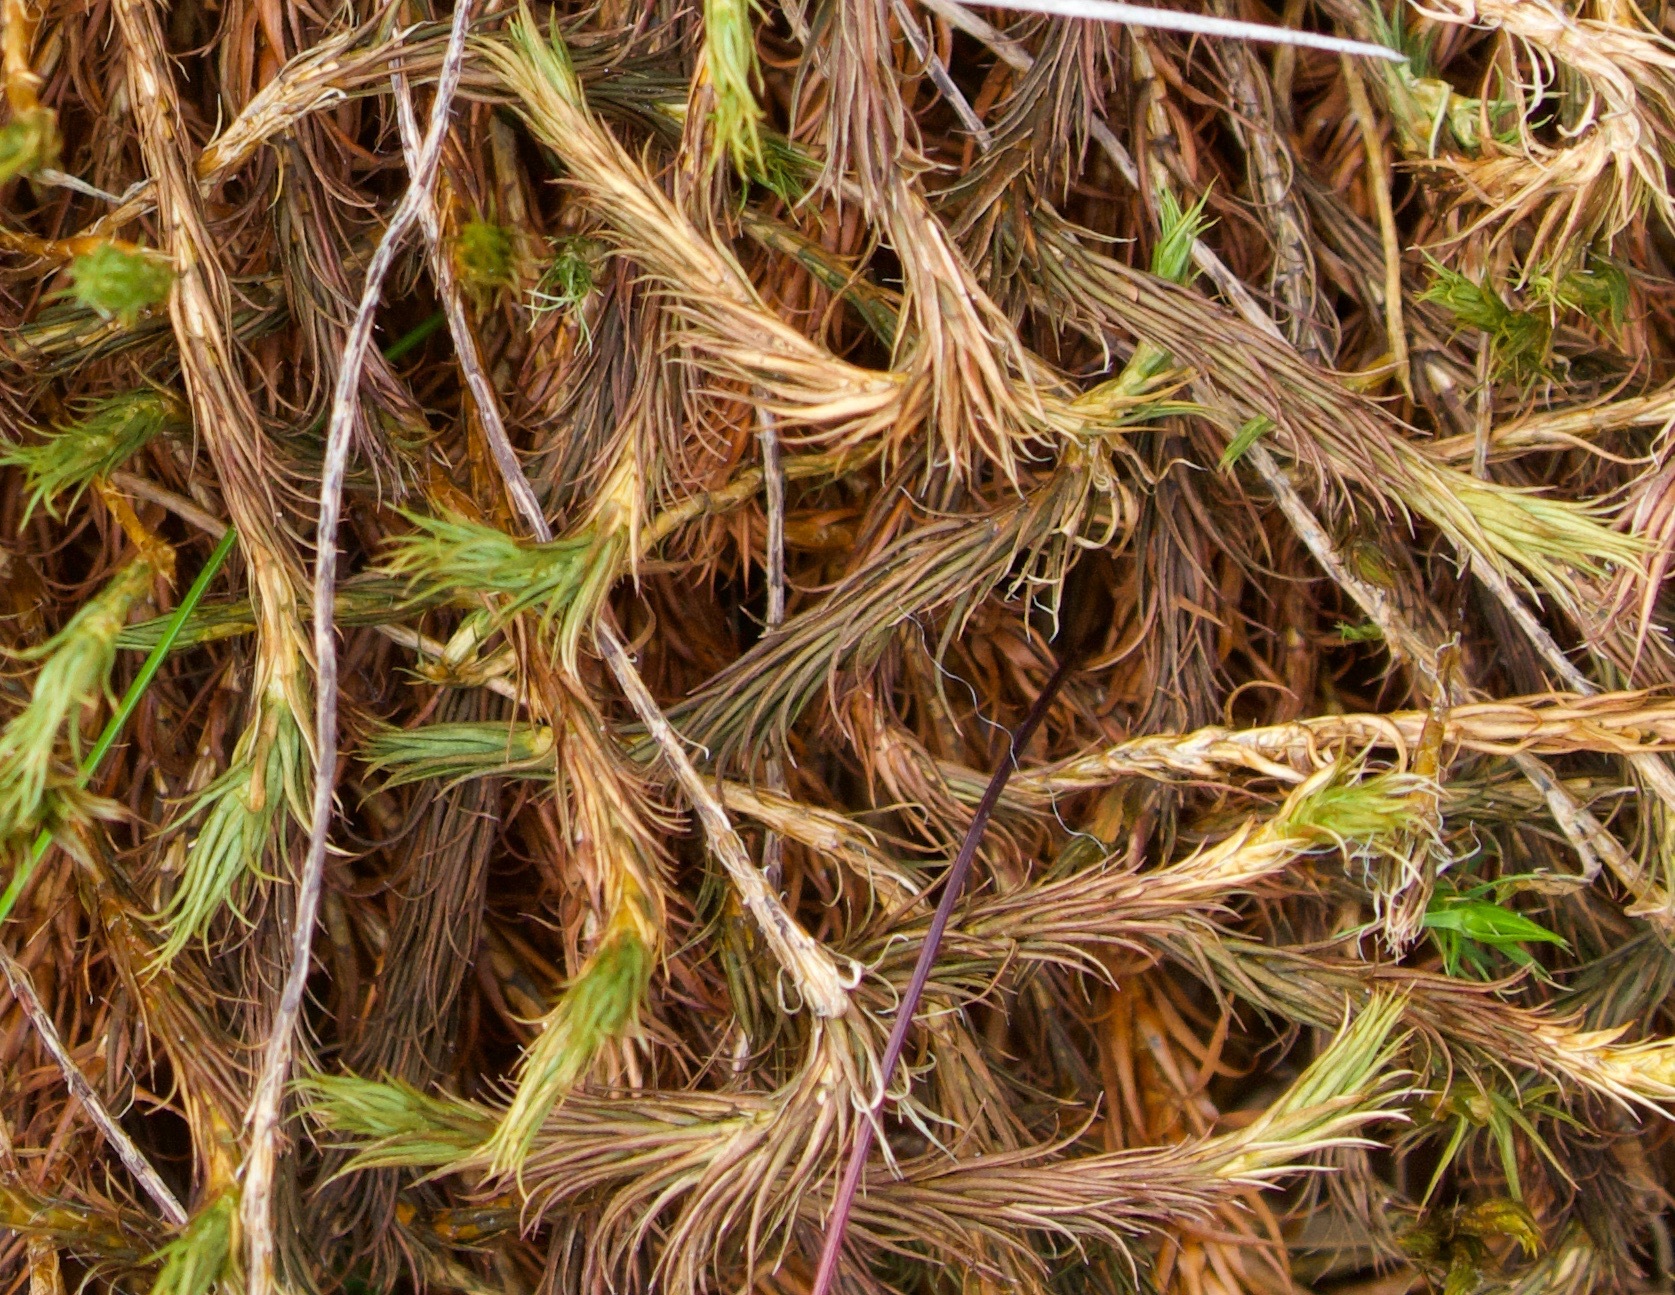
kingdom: Plantae
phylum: Bryophyta
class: Polytrichopsida
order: Polytrichales
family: Polytrichaceae
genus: Polytrichum
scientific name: Polytrichum commune
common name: Common haircap
